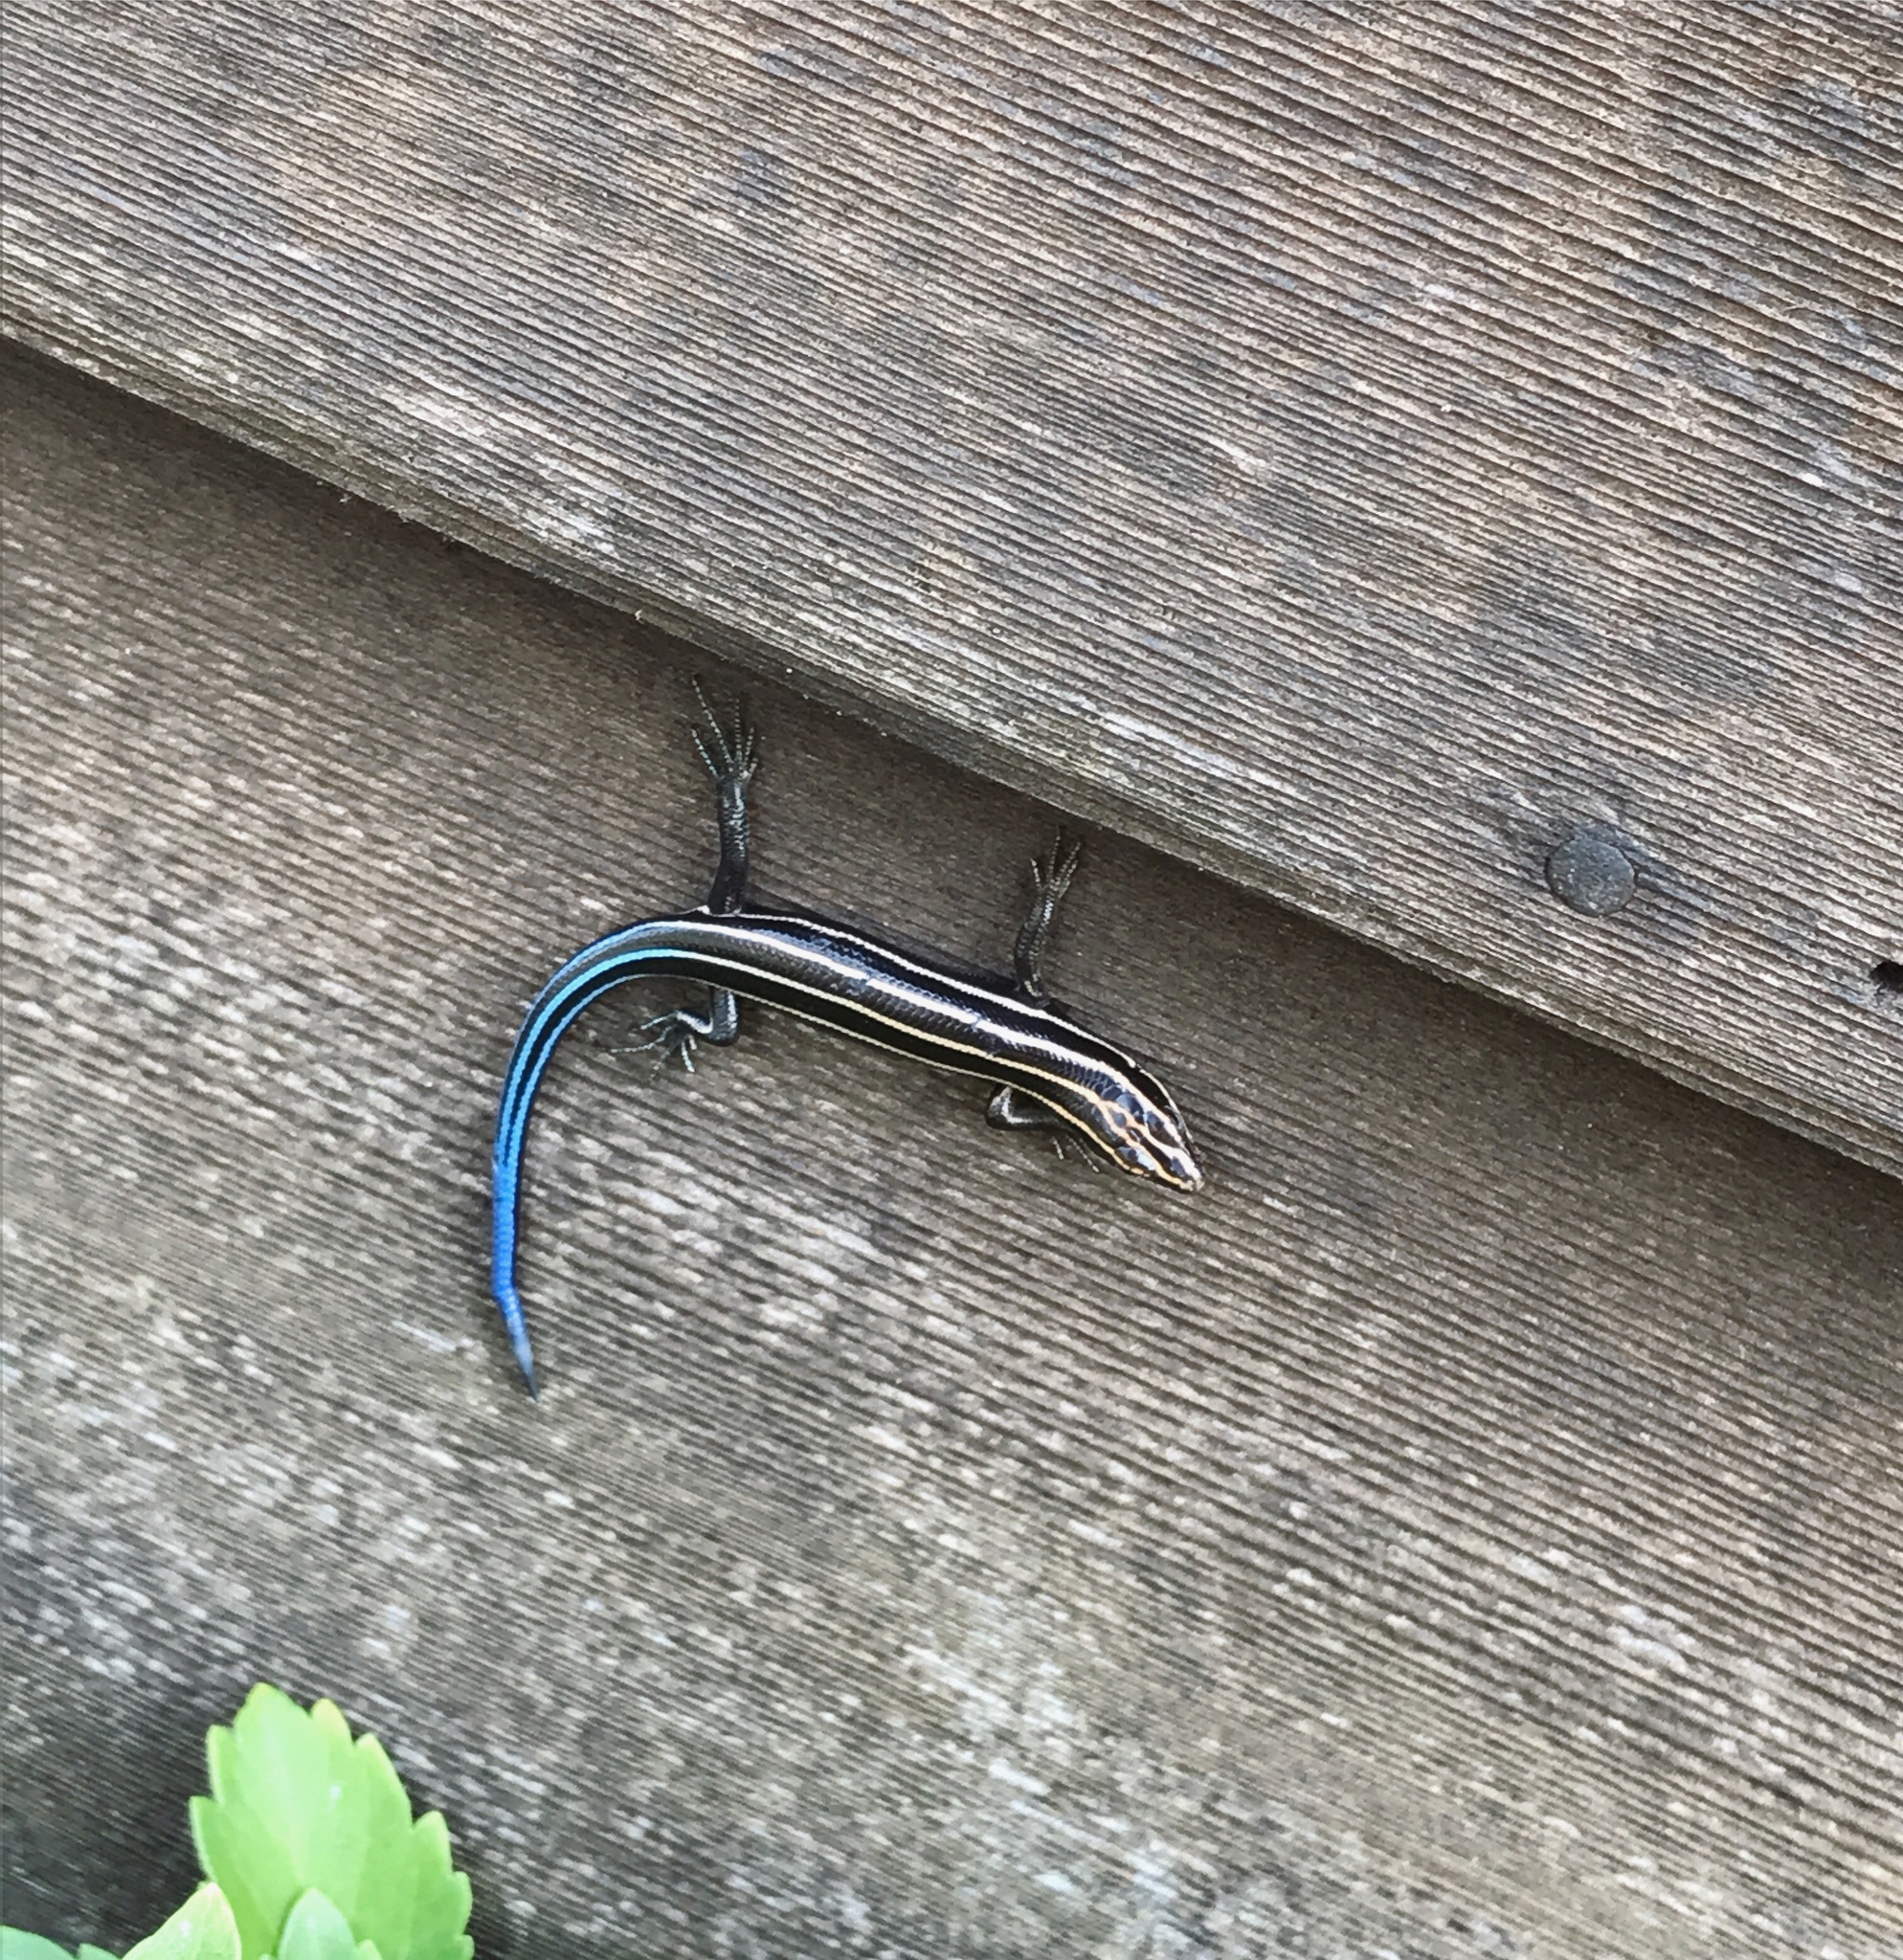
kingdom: Animalia
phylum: Chordata
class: Squamata
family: Scincidae
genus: Plestiodon
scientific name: Plestiodon fasciatus
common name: Five-lined skink
